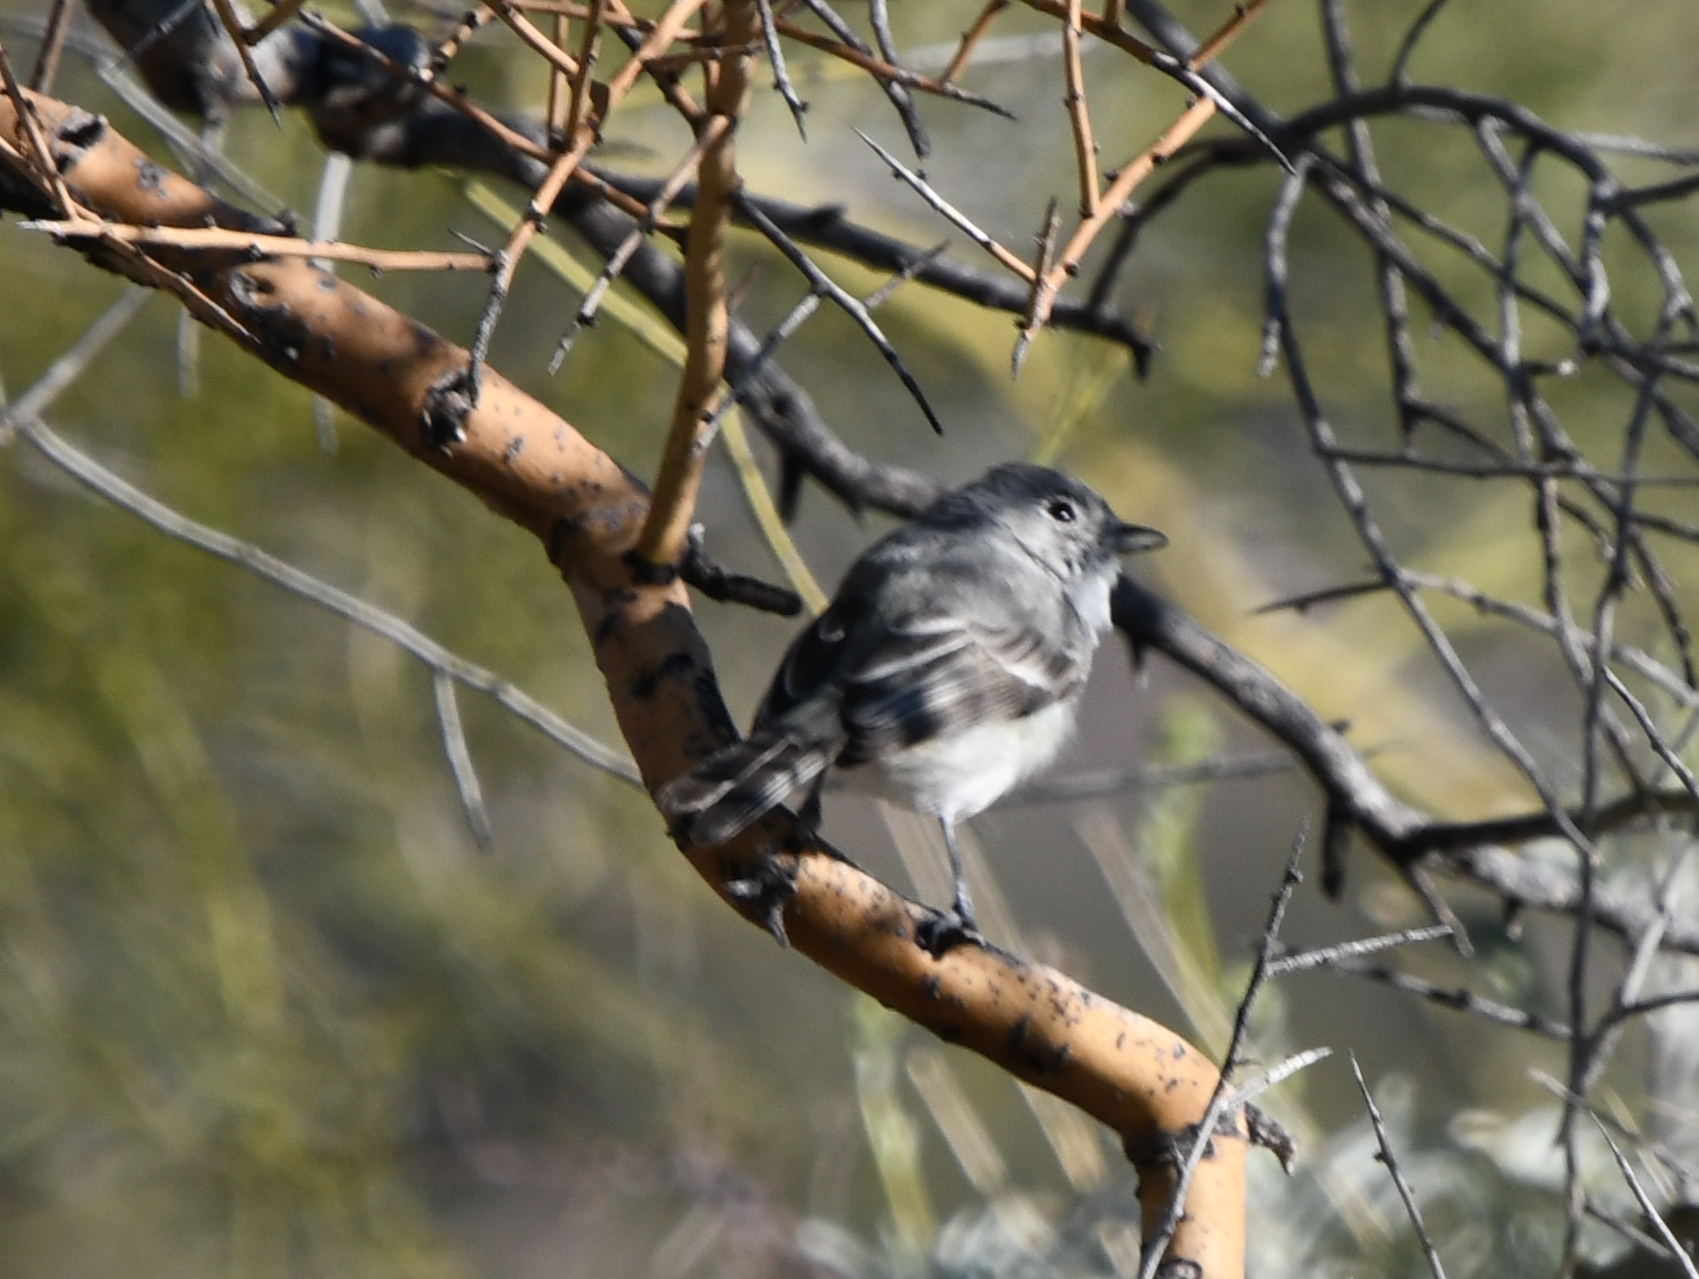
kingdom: Animalia
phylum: Chordata
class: Aves
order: Passeriformes
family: Vireonidae
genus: Vireo
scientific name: Vireo vicinior
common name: Gray vireo
